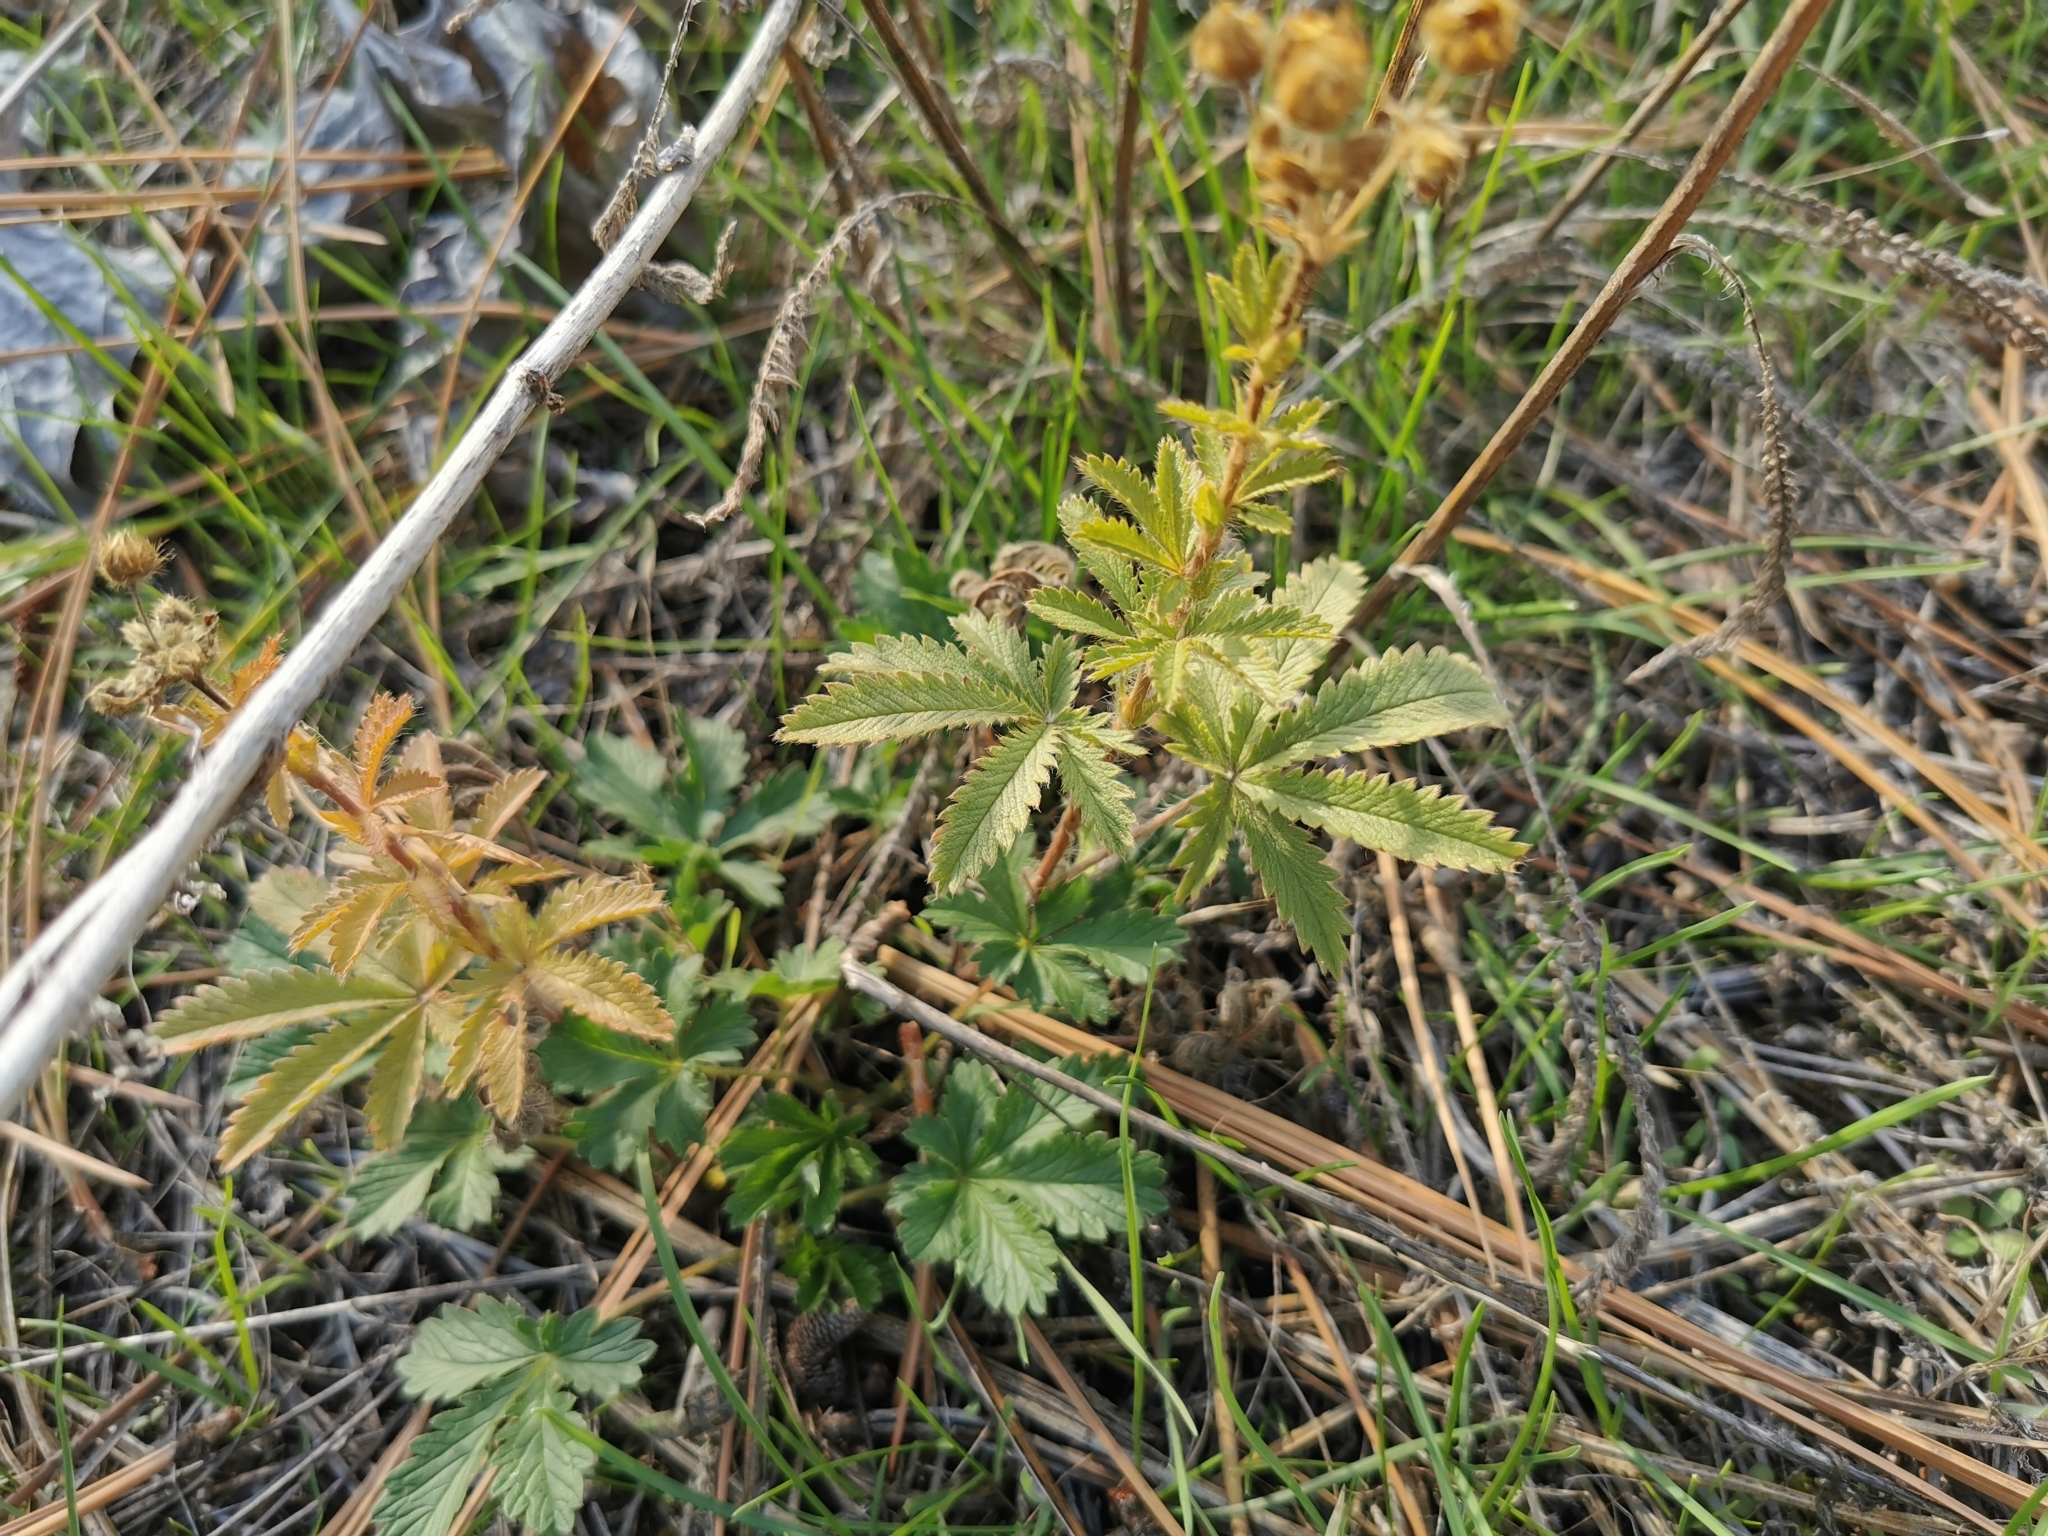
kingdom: Plantae
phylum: Tracheophyta
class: Magnoliopsida
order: Rosales
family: Rosaceae
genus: Potentilla
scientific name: Potentilla recta
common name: Sulphur cinquefoil
